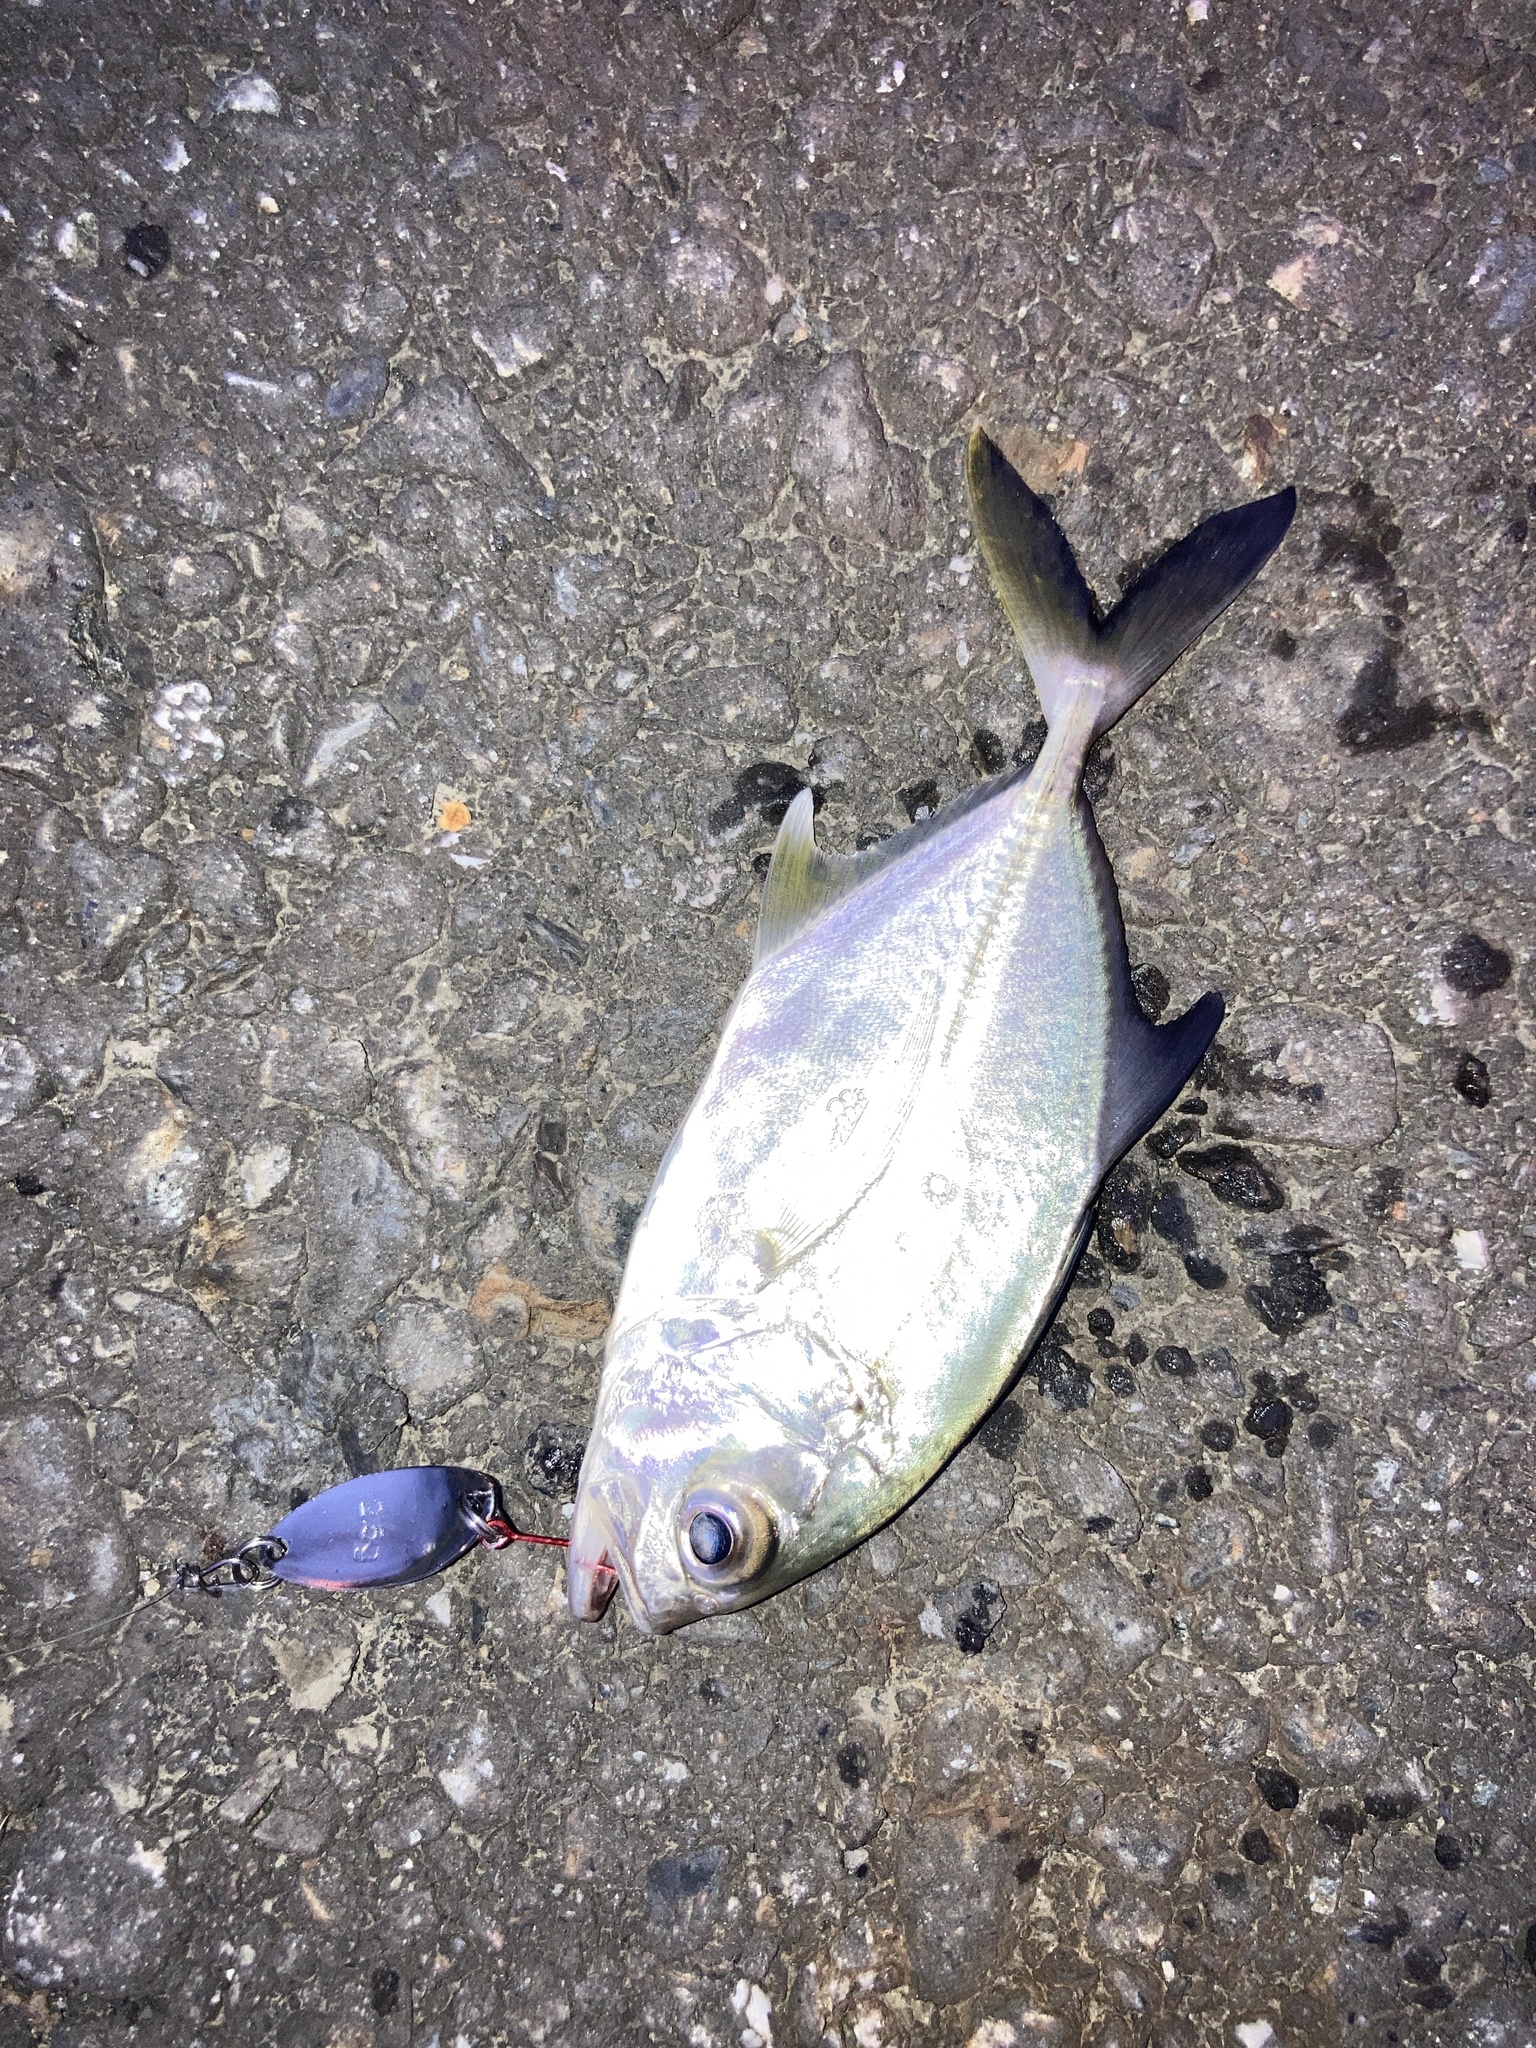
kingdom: Animalia
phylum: Chordata
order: Perciformes
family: Carangidae
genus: Caranx
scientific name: Caranx sexfasciatus
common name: Bigeye trevally
